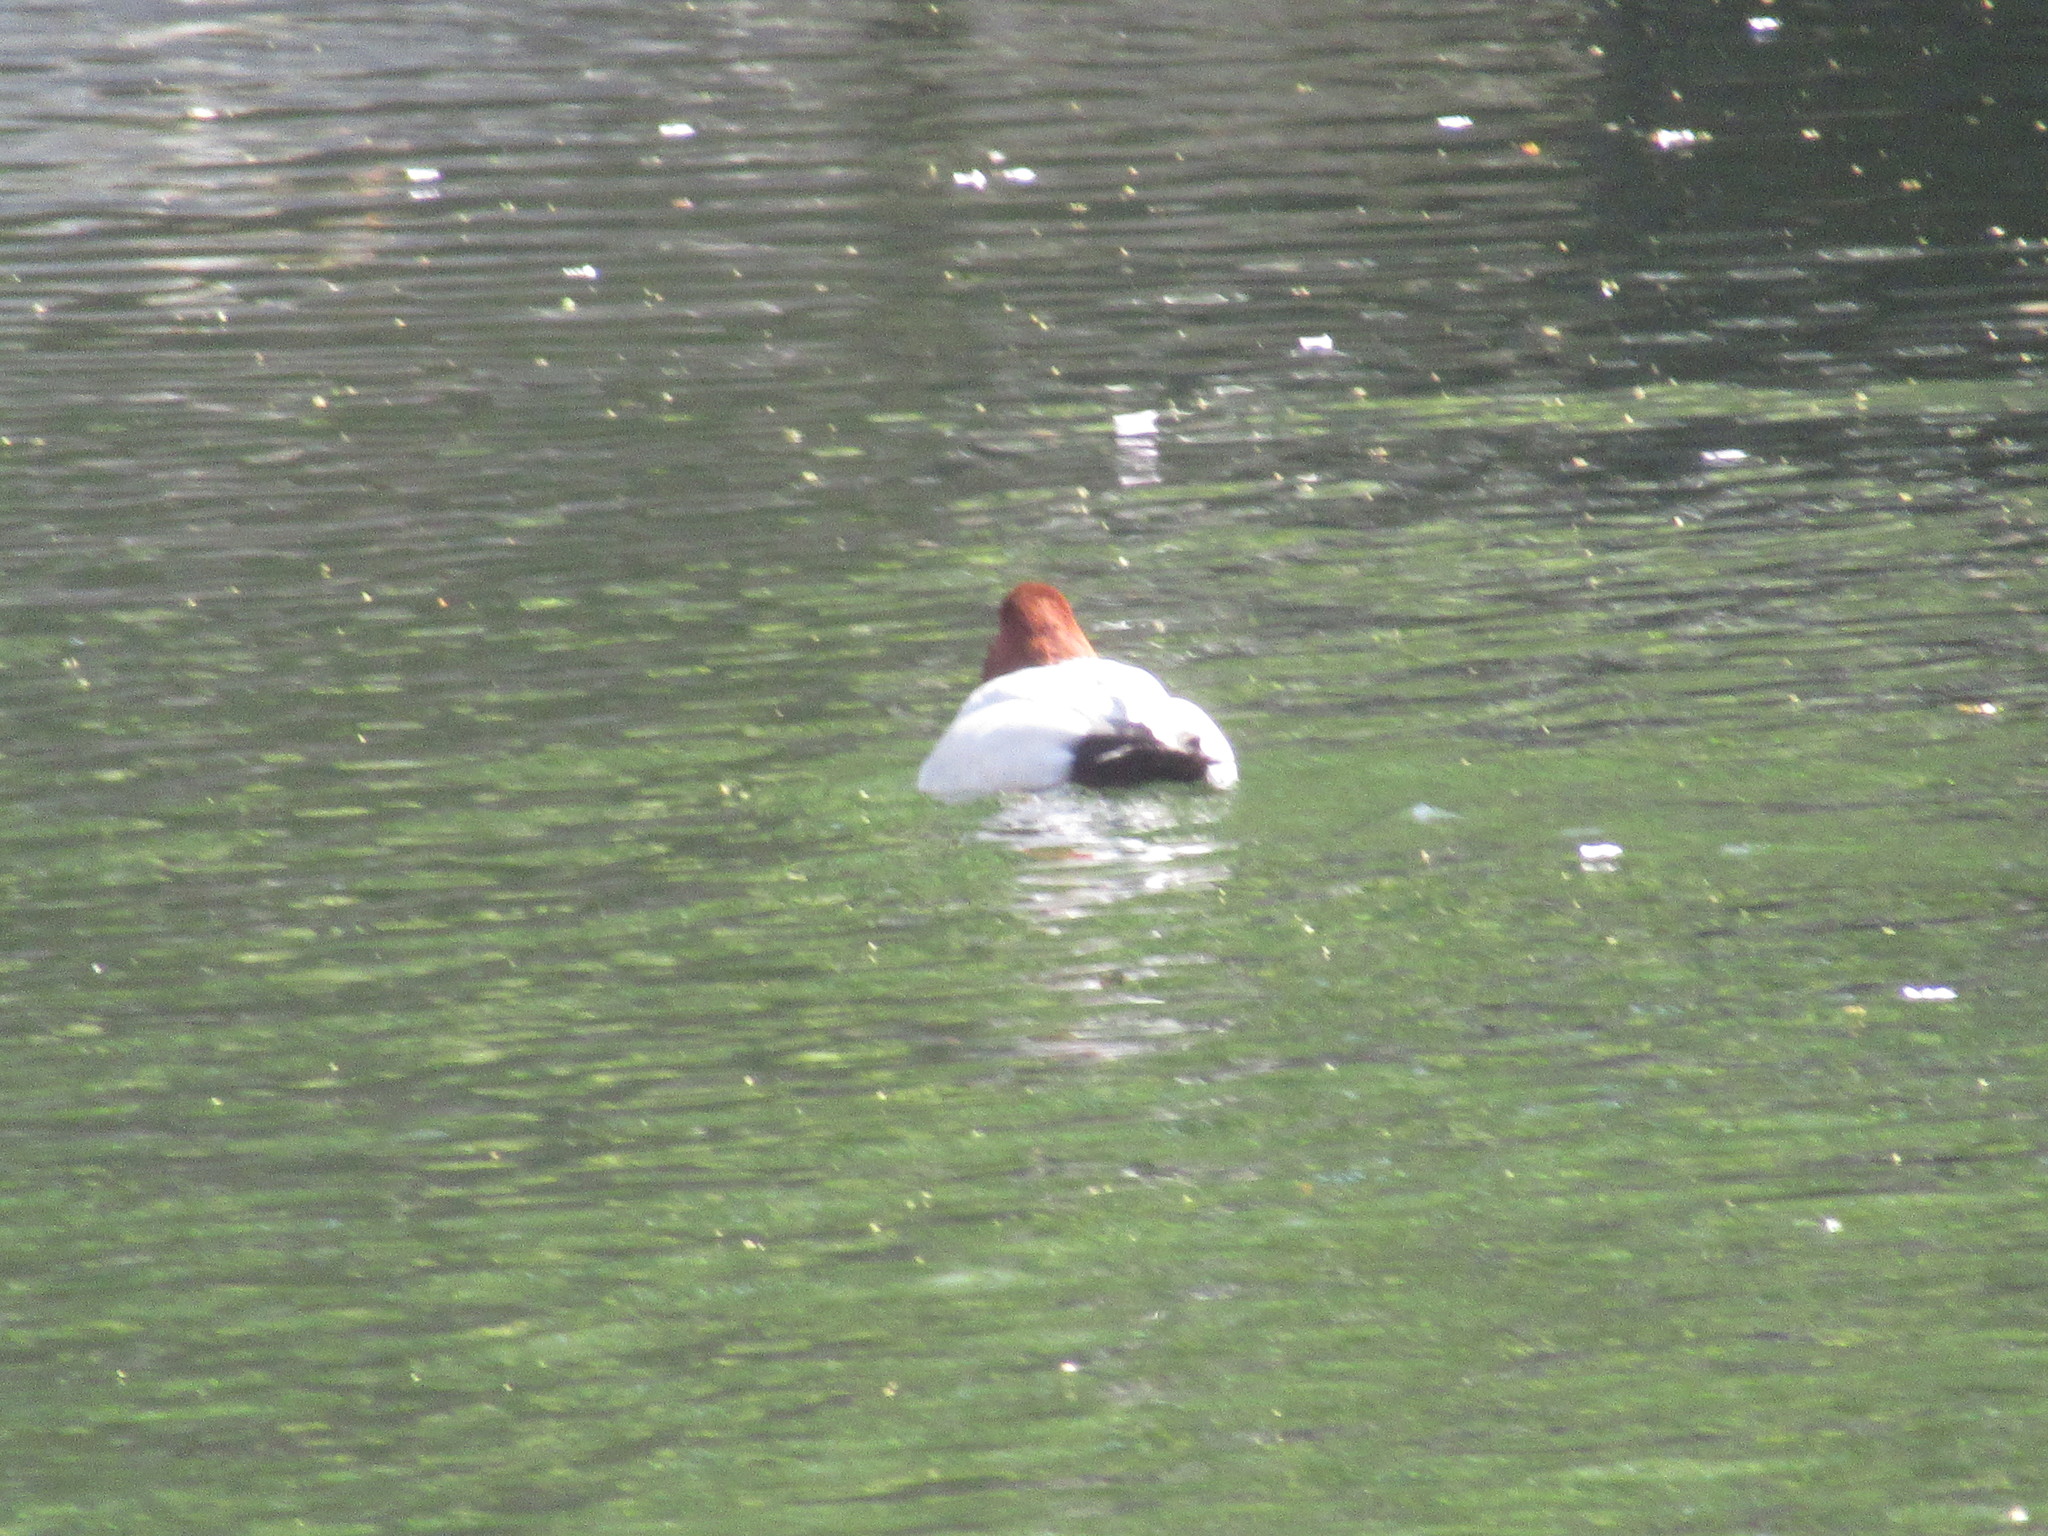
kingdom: Animalia
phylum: Chordata
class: Aves
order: Anseriformes
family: Anatidae
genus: Aythya
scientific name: Aythya ferina
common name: Common pochard
